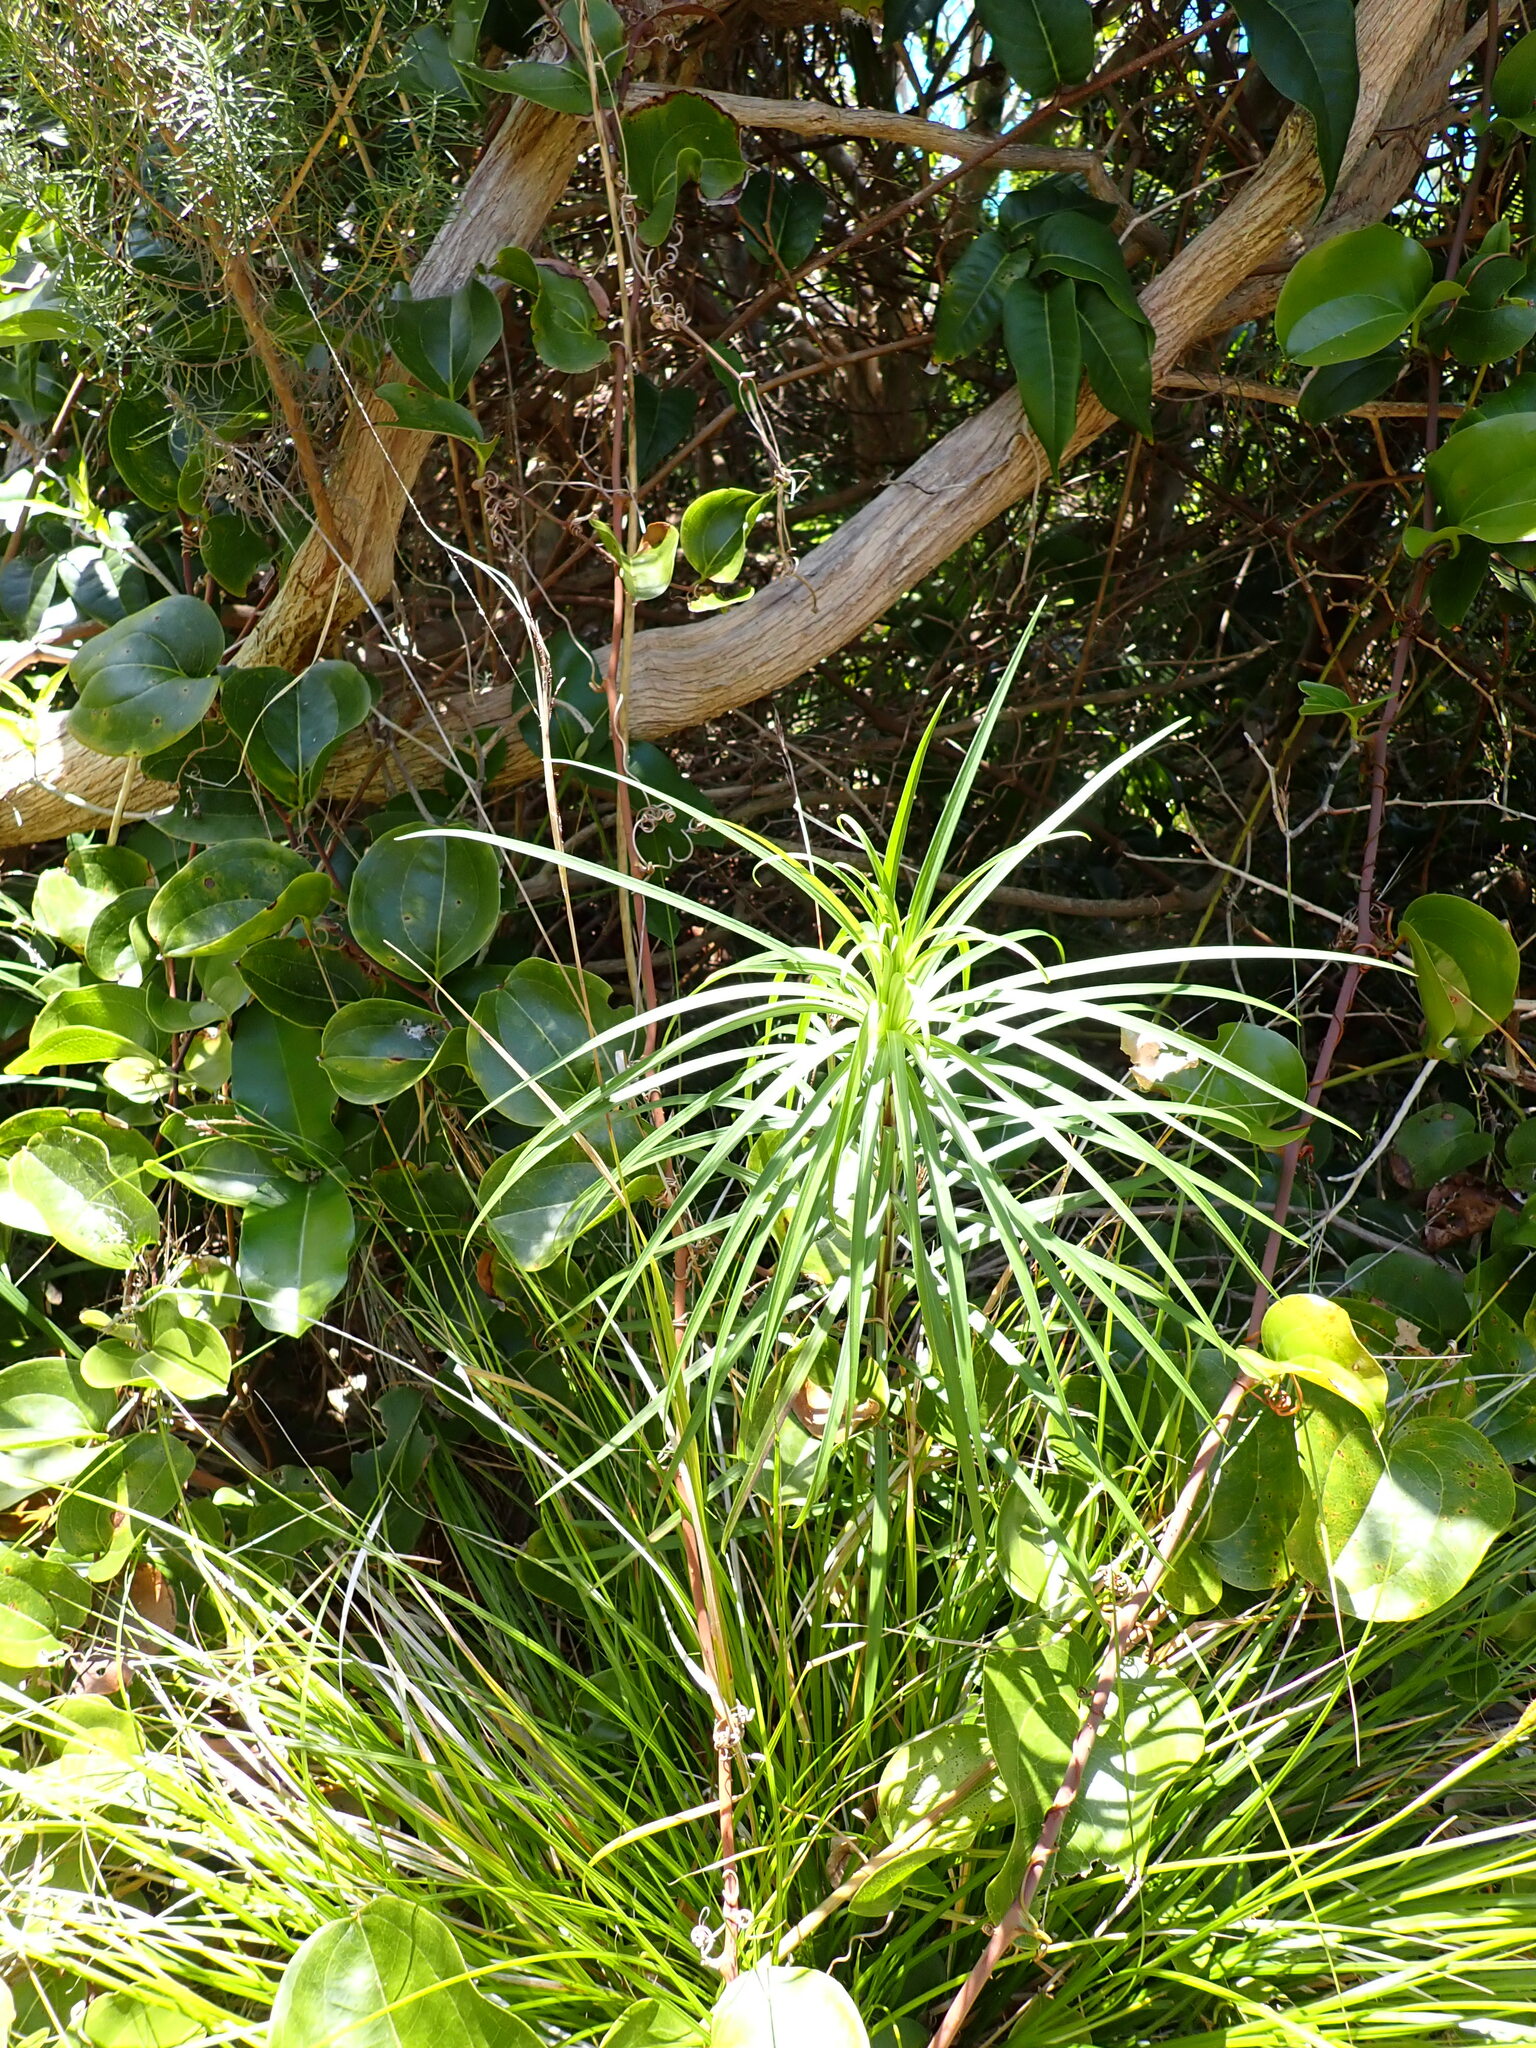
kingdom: Plantae
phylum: Tracheophyta
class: Liliopsida
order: Liliales
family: Liliaceae
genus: Lilium
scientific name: Lilium formosanum
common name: Formosa lily
